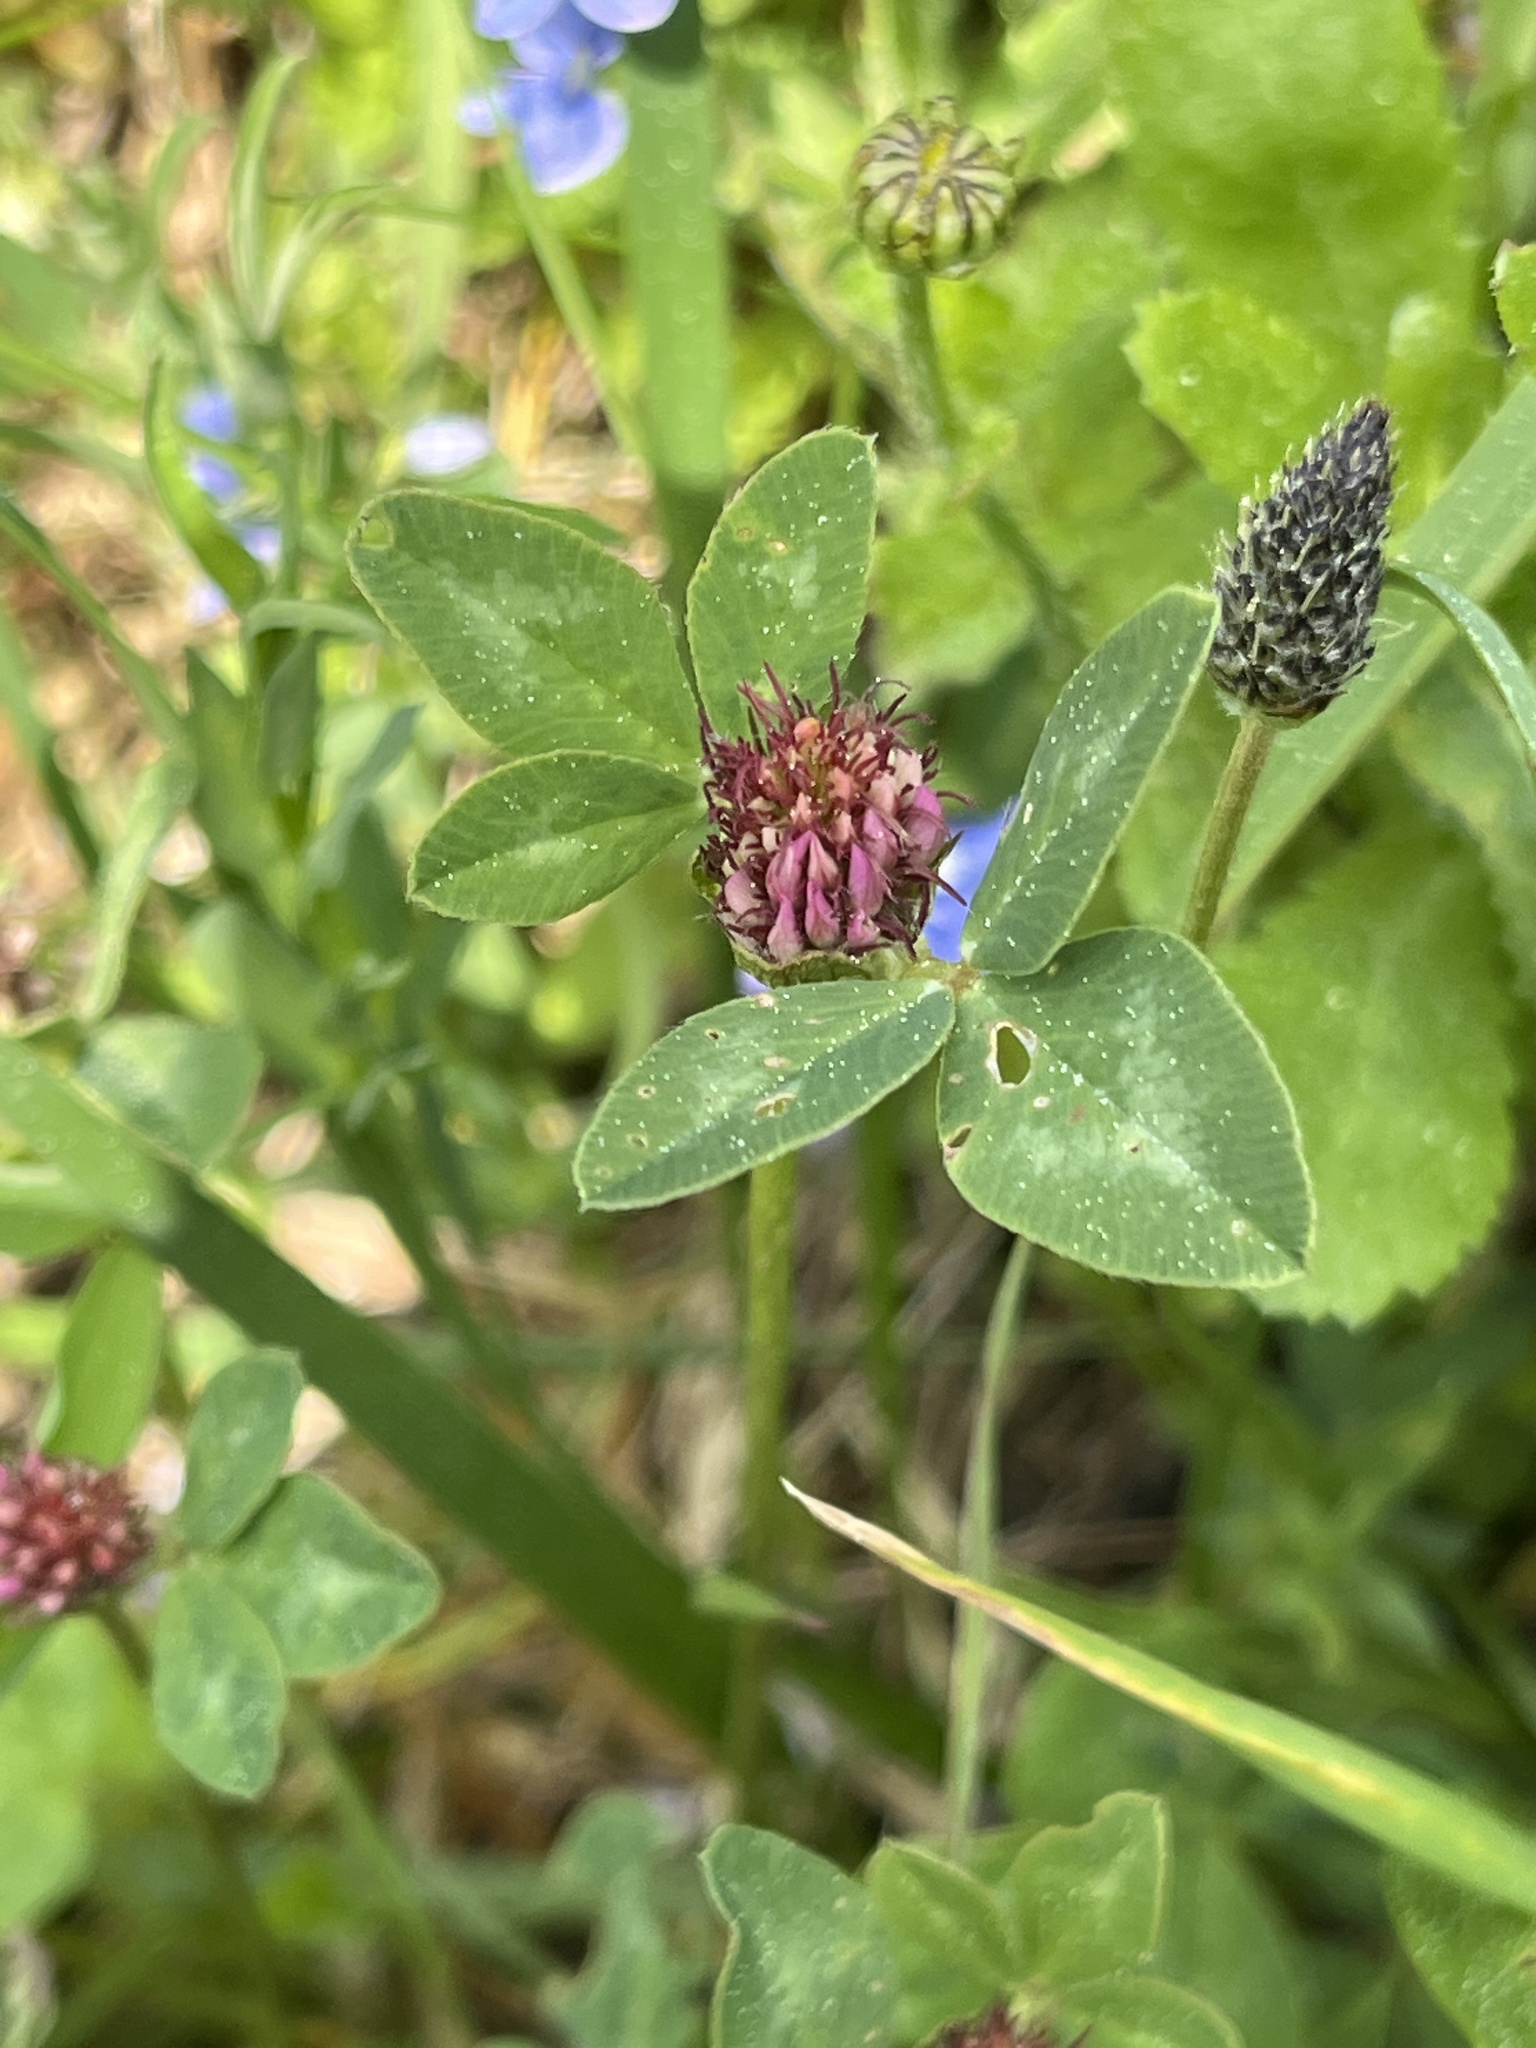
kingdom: Plantae
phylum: Tracheophyta
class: Magnoliopsida
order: Fabales
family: Fabaceae
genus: Trifolium
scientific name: Trifolium pratense
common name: Red clover
